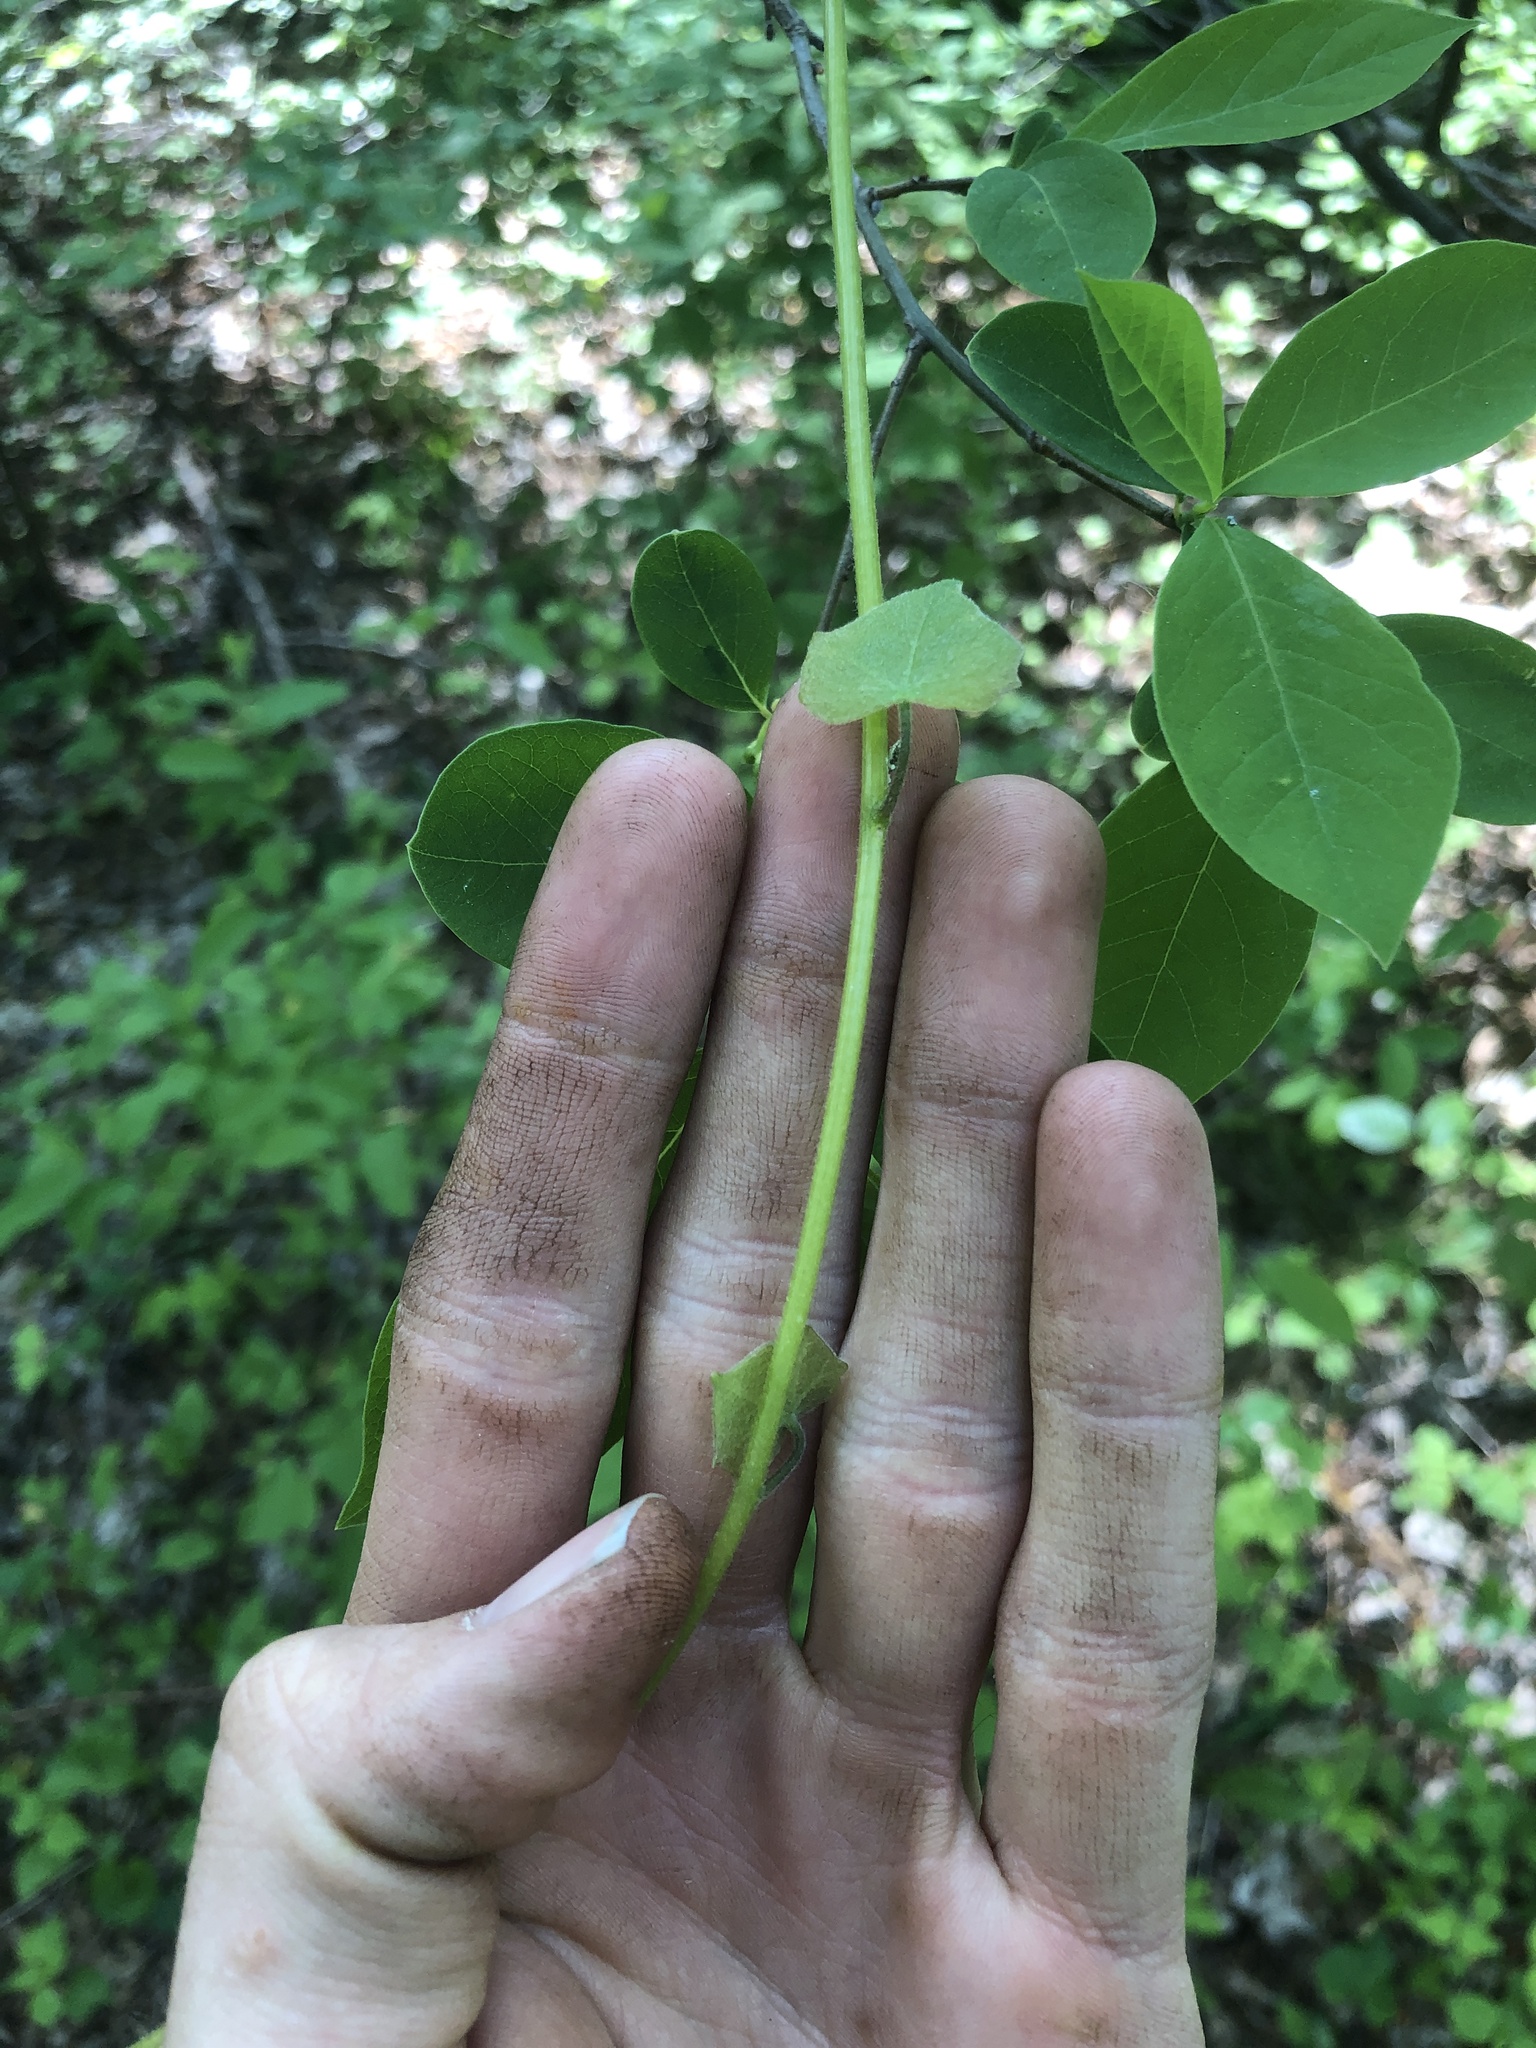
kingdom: Plantae
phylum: Tracheophyta
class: Magnoliopsida
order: Ranunculales
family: Menispermaceae
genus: Menispermum
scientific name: Menispermum canadense
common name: Moonseed
